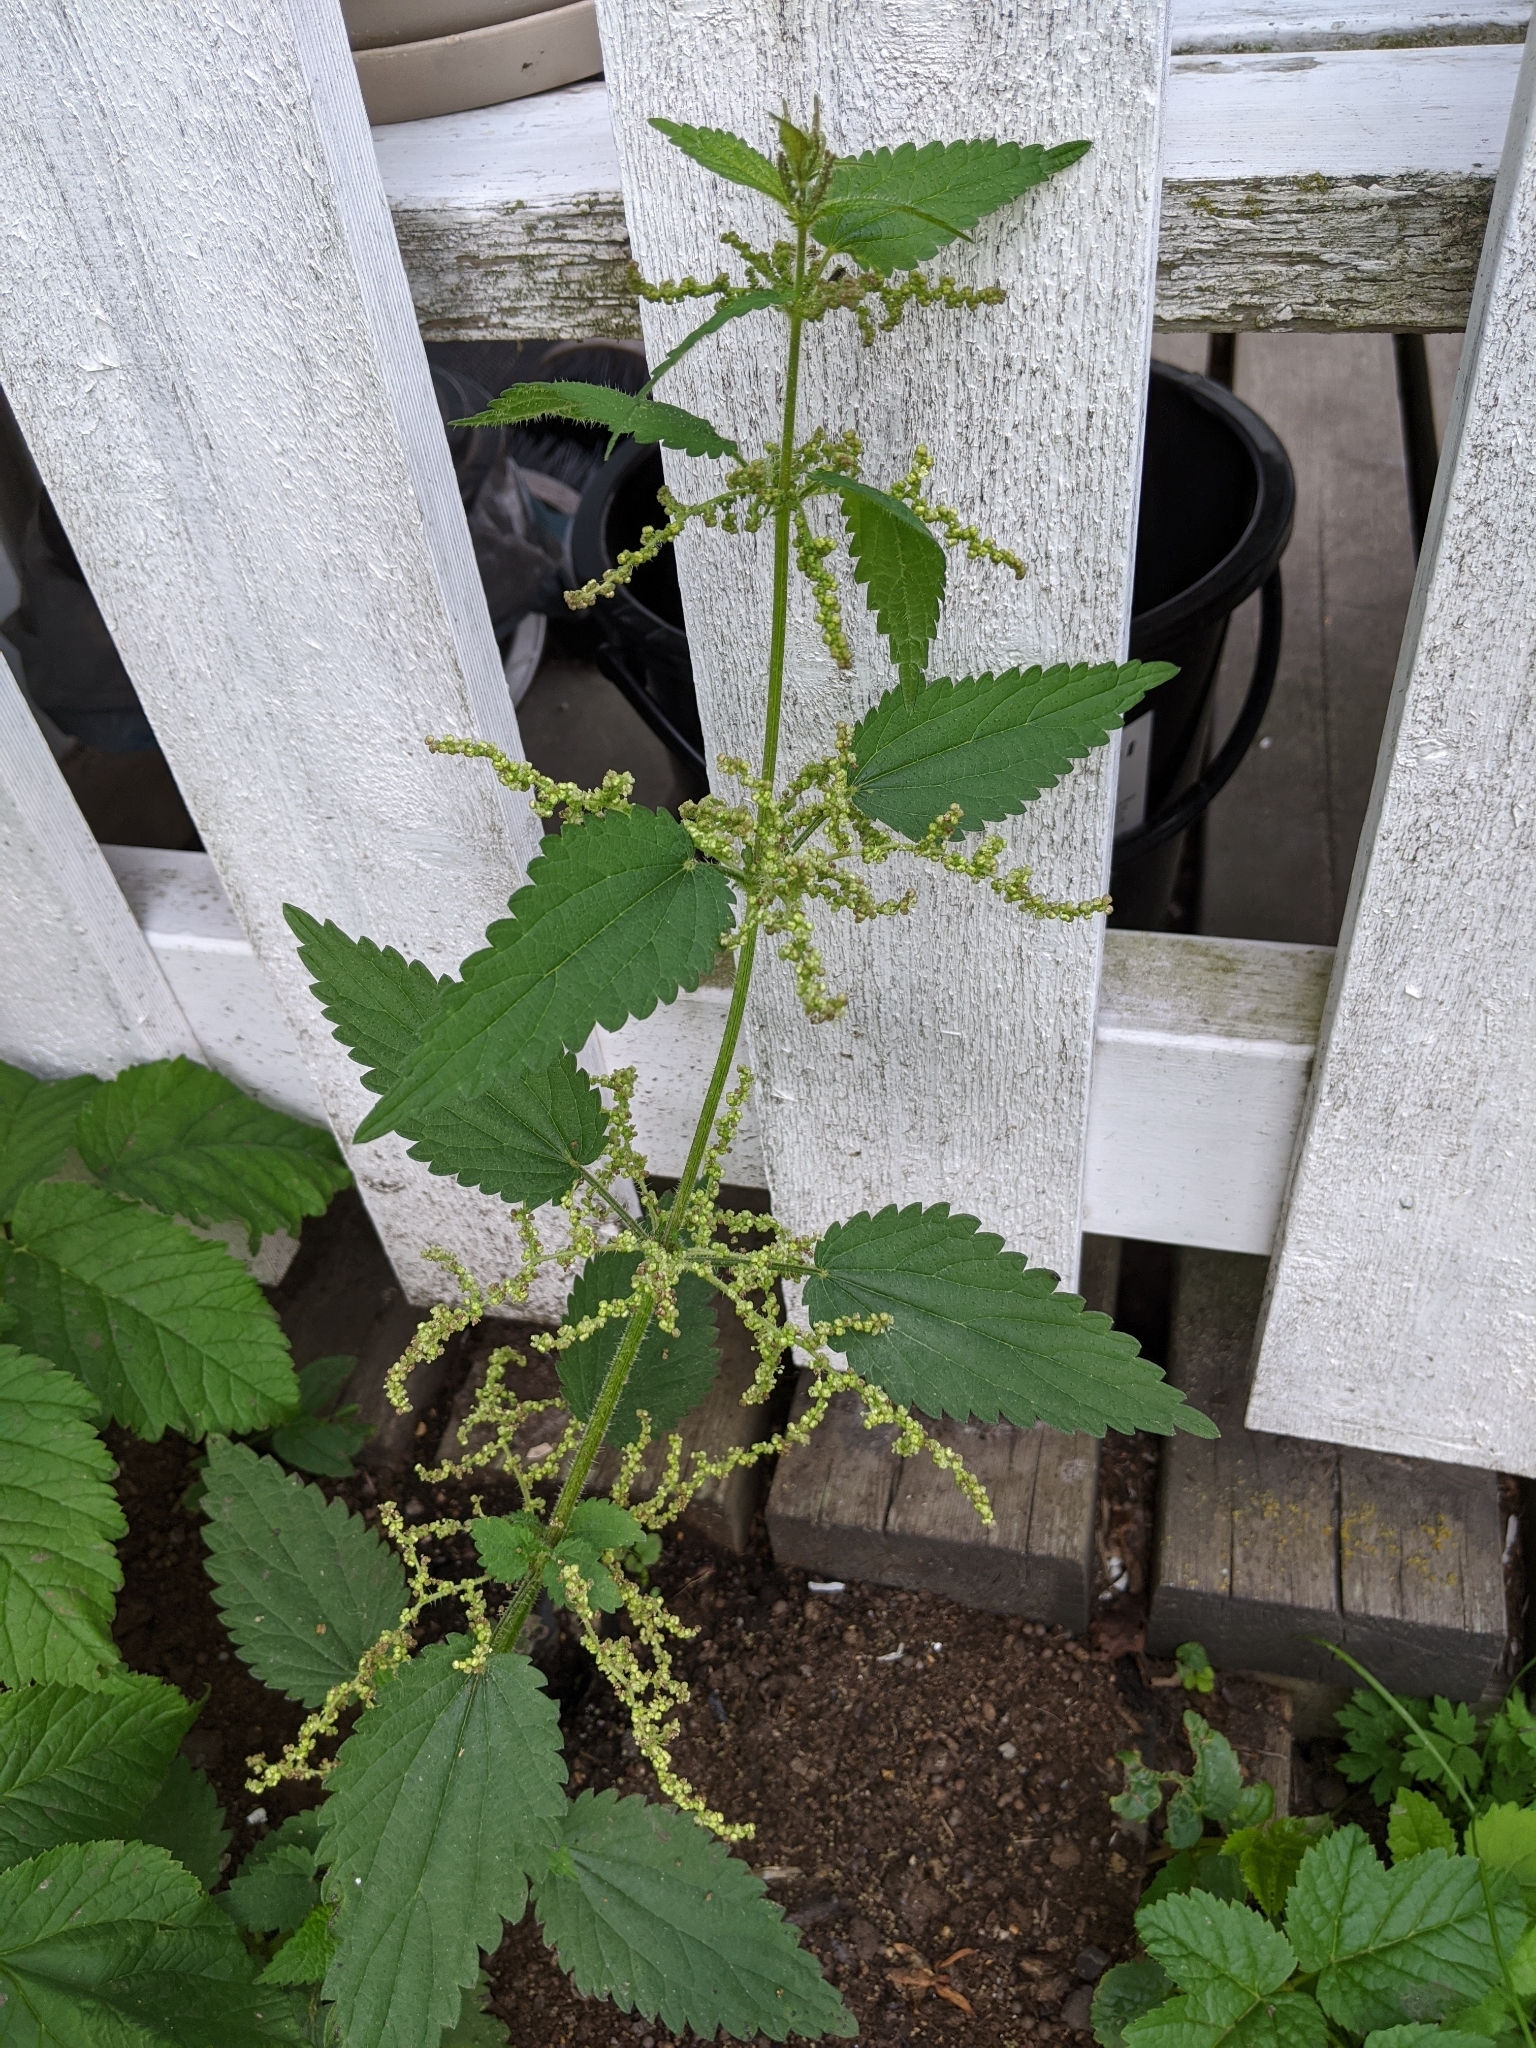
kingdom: Plantae
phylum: Tracheophyta
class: Magnoliopsida
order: Rosales
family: Urticaceae
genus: Urtica
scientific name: Urtica dioica
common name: Common nettle
